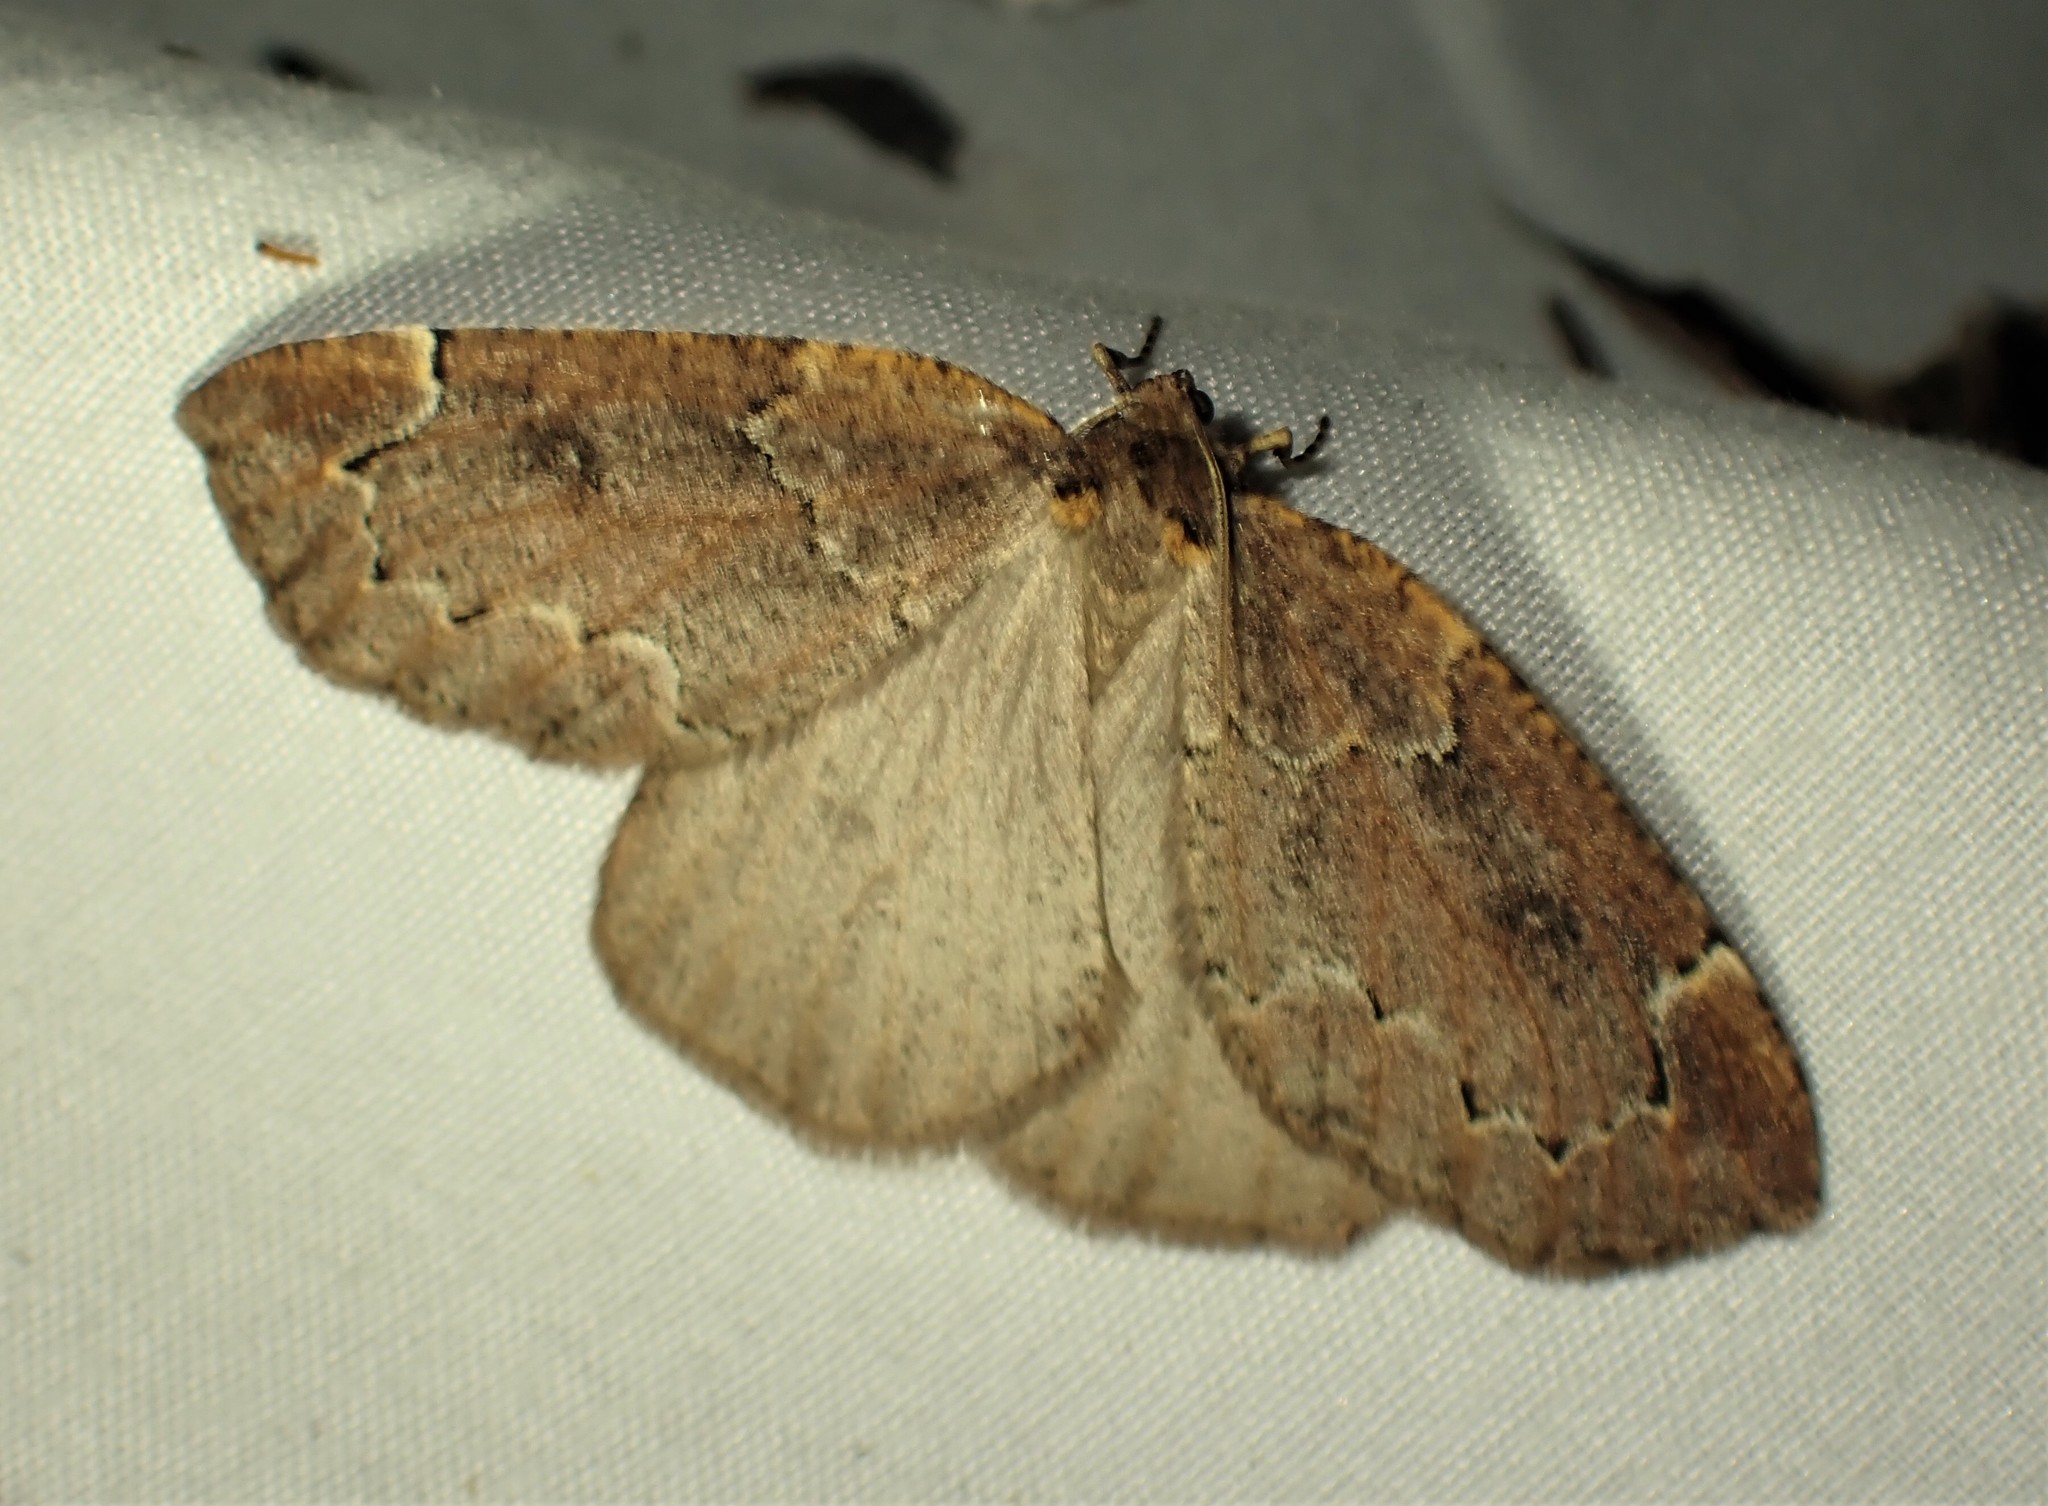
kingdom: Animalia
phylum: Arthropoda
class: Insecta
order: Lepidoptera
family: Geometridae
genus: Spodolepis
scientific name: Spodolepis substriataria
